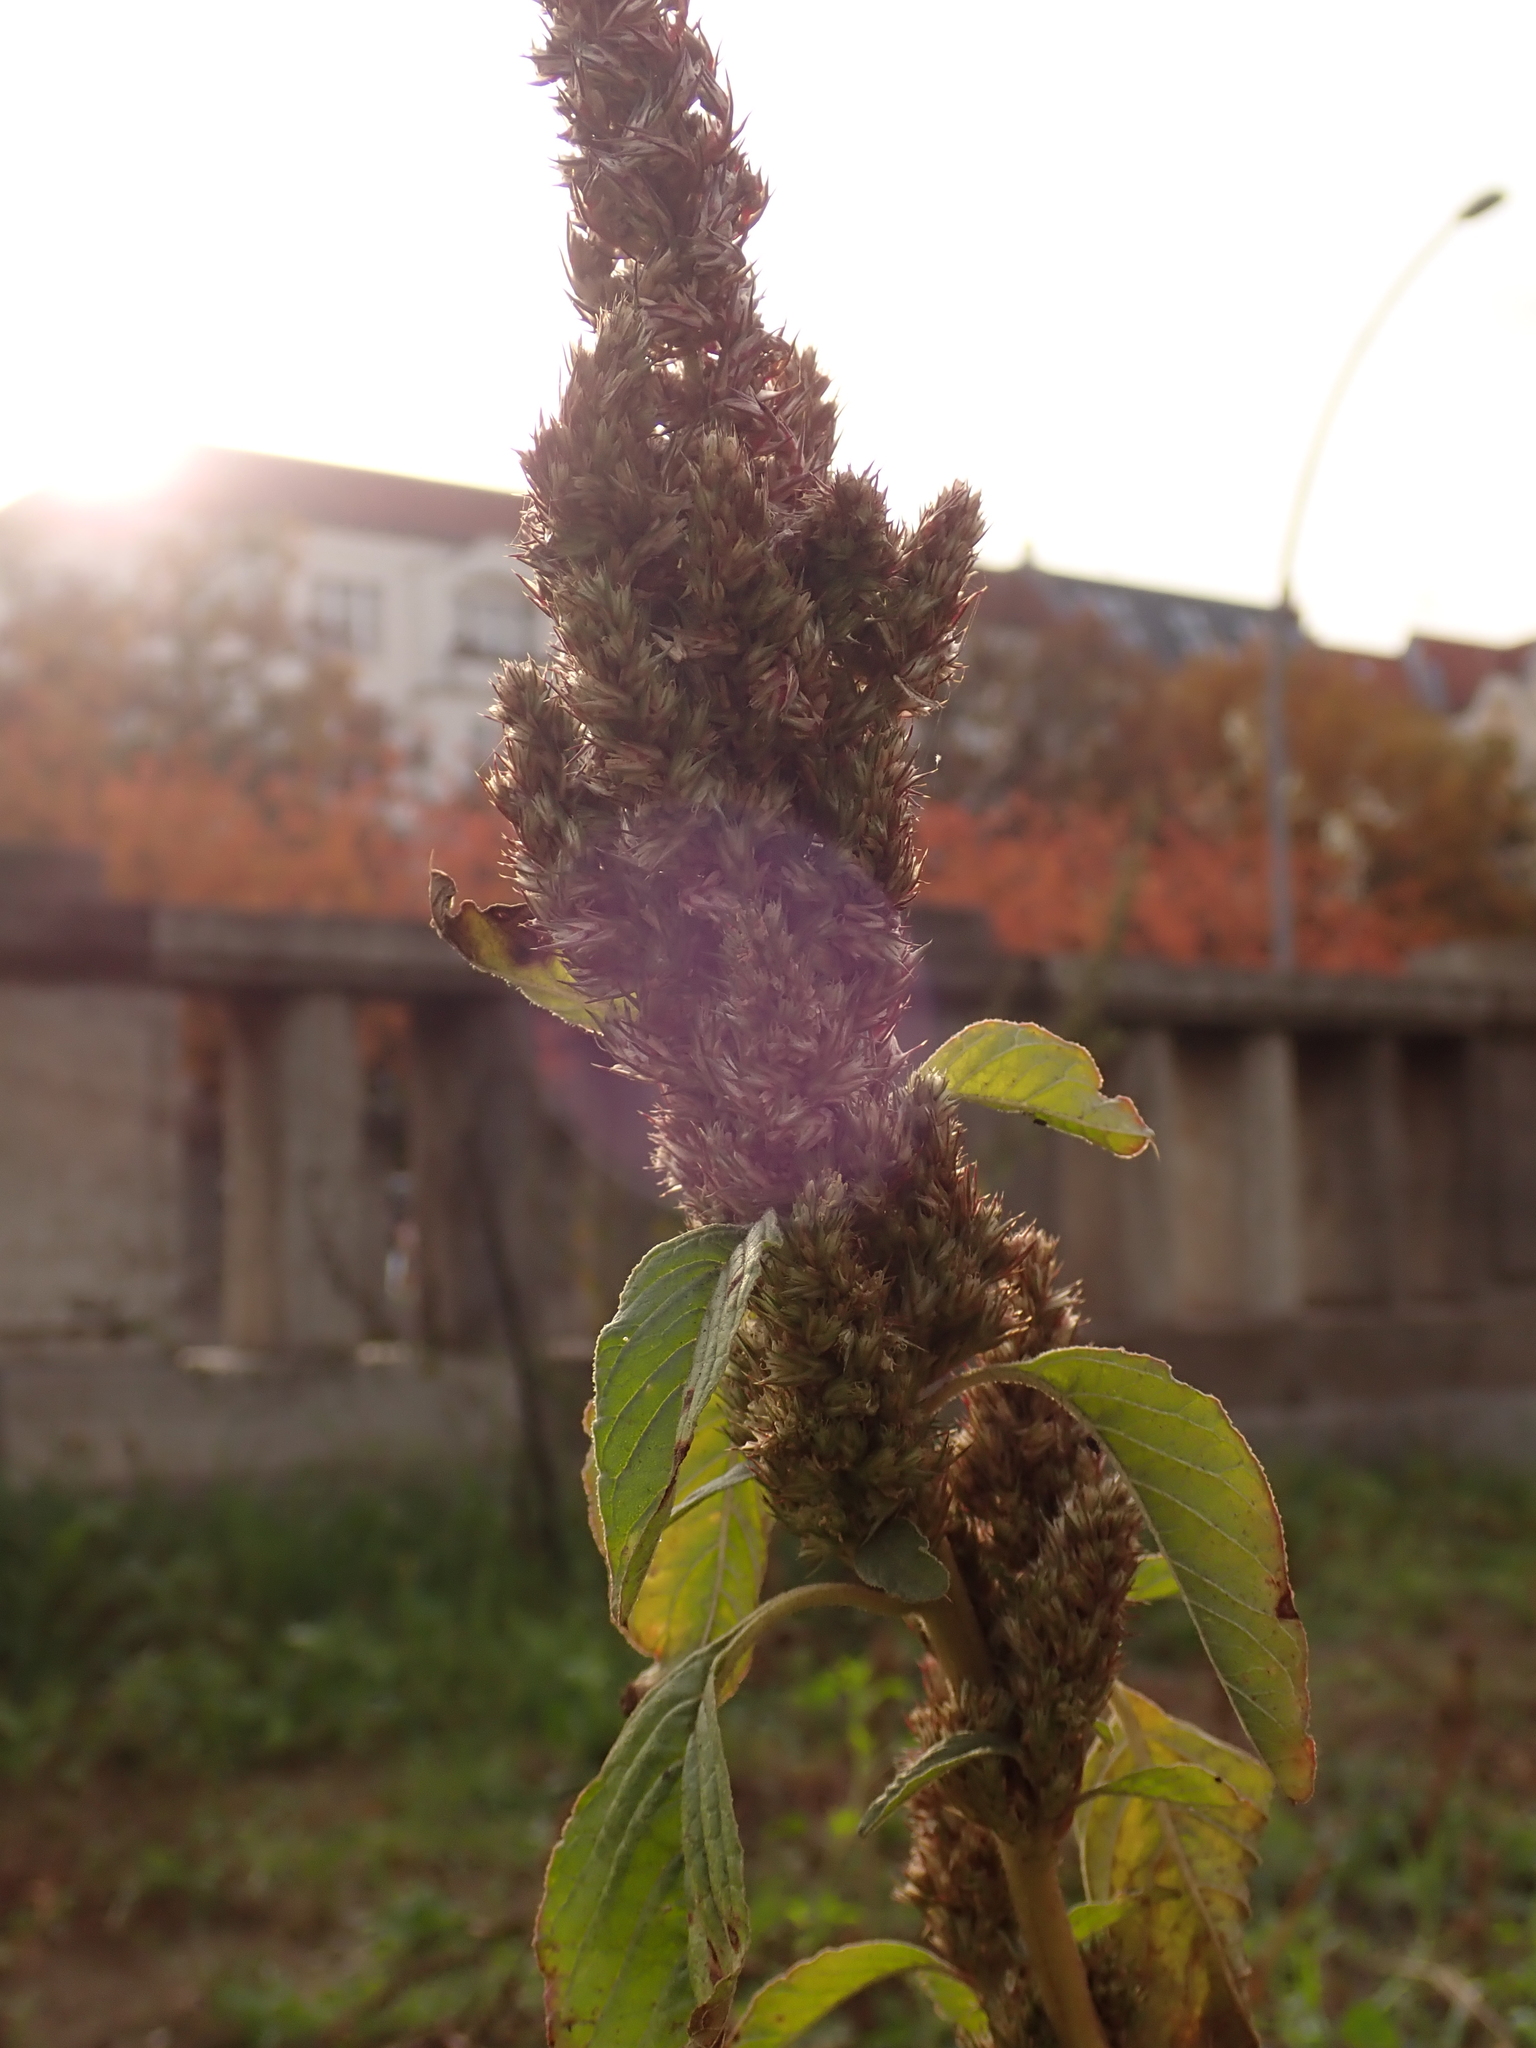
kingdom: Plantae
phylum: Tracheophyta
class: Magnoliopsida
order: Caryophyllales
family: Amaranthaceae
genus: Amaranthus
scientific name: Amaranthus retroflexus
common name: Redroot amaranth
